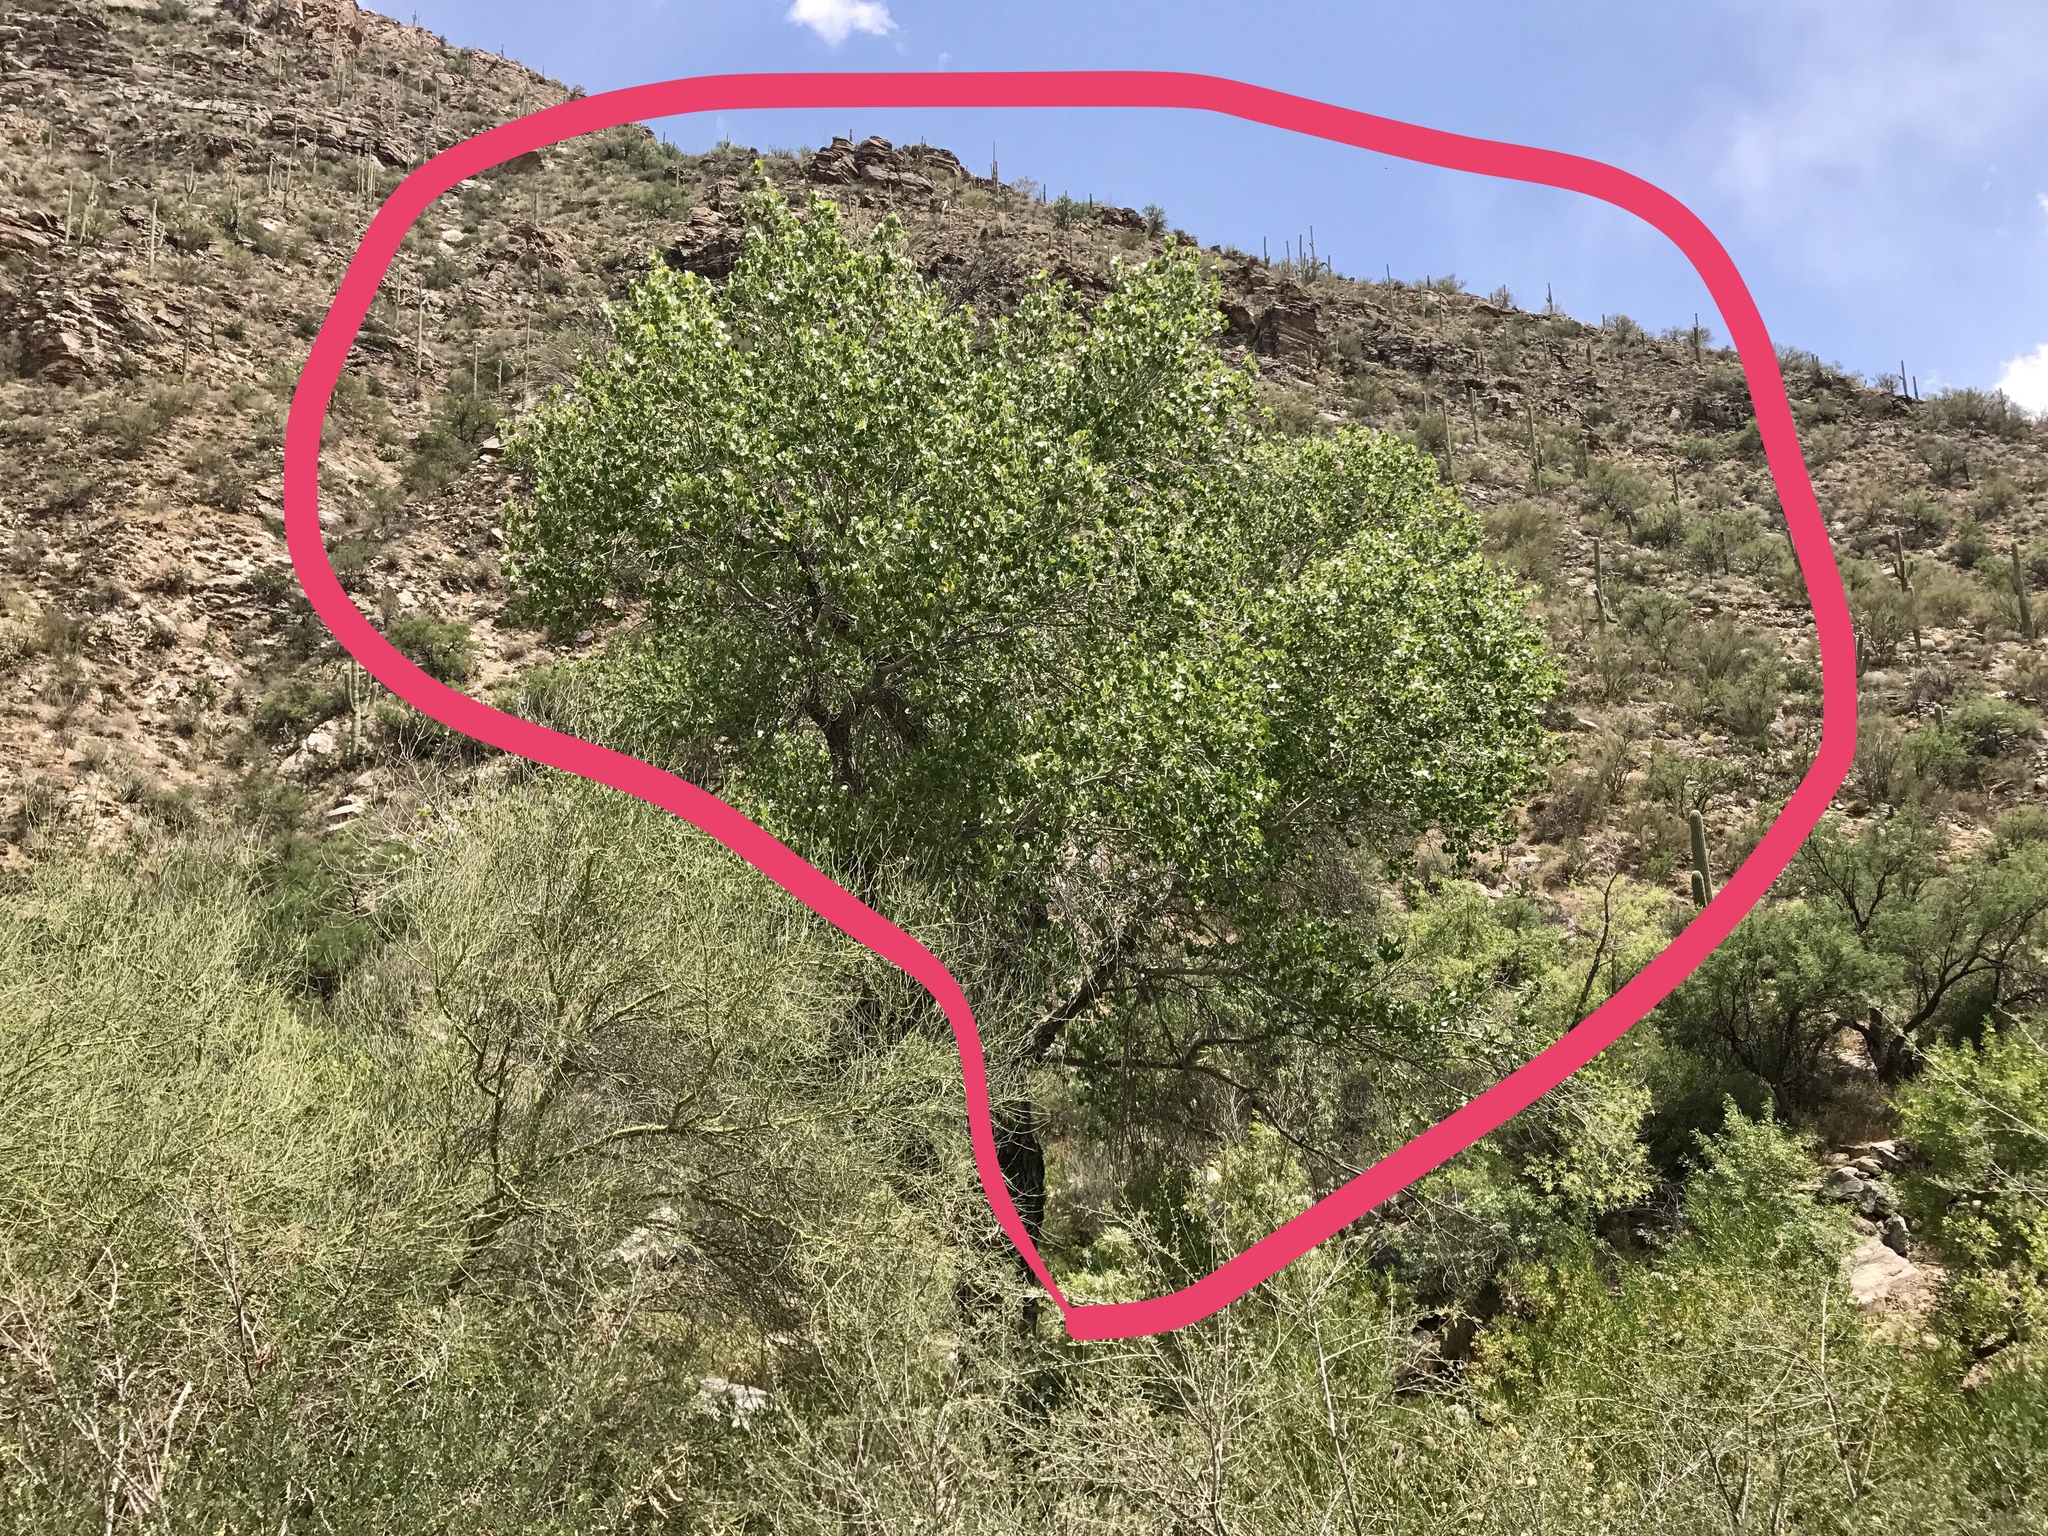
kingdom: Plantae
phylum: Tracheophyta
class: Magnoliopsida
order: Malpighiales
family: Salicaceae
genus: Populus
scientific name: Populus fremontii
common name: Fremont's cottonwood
